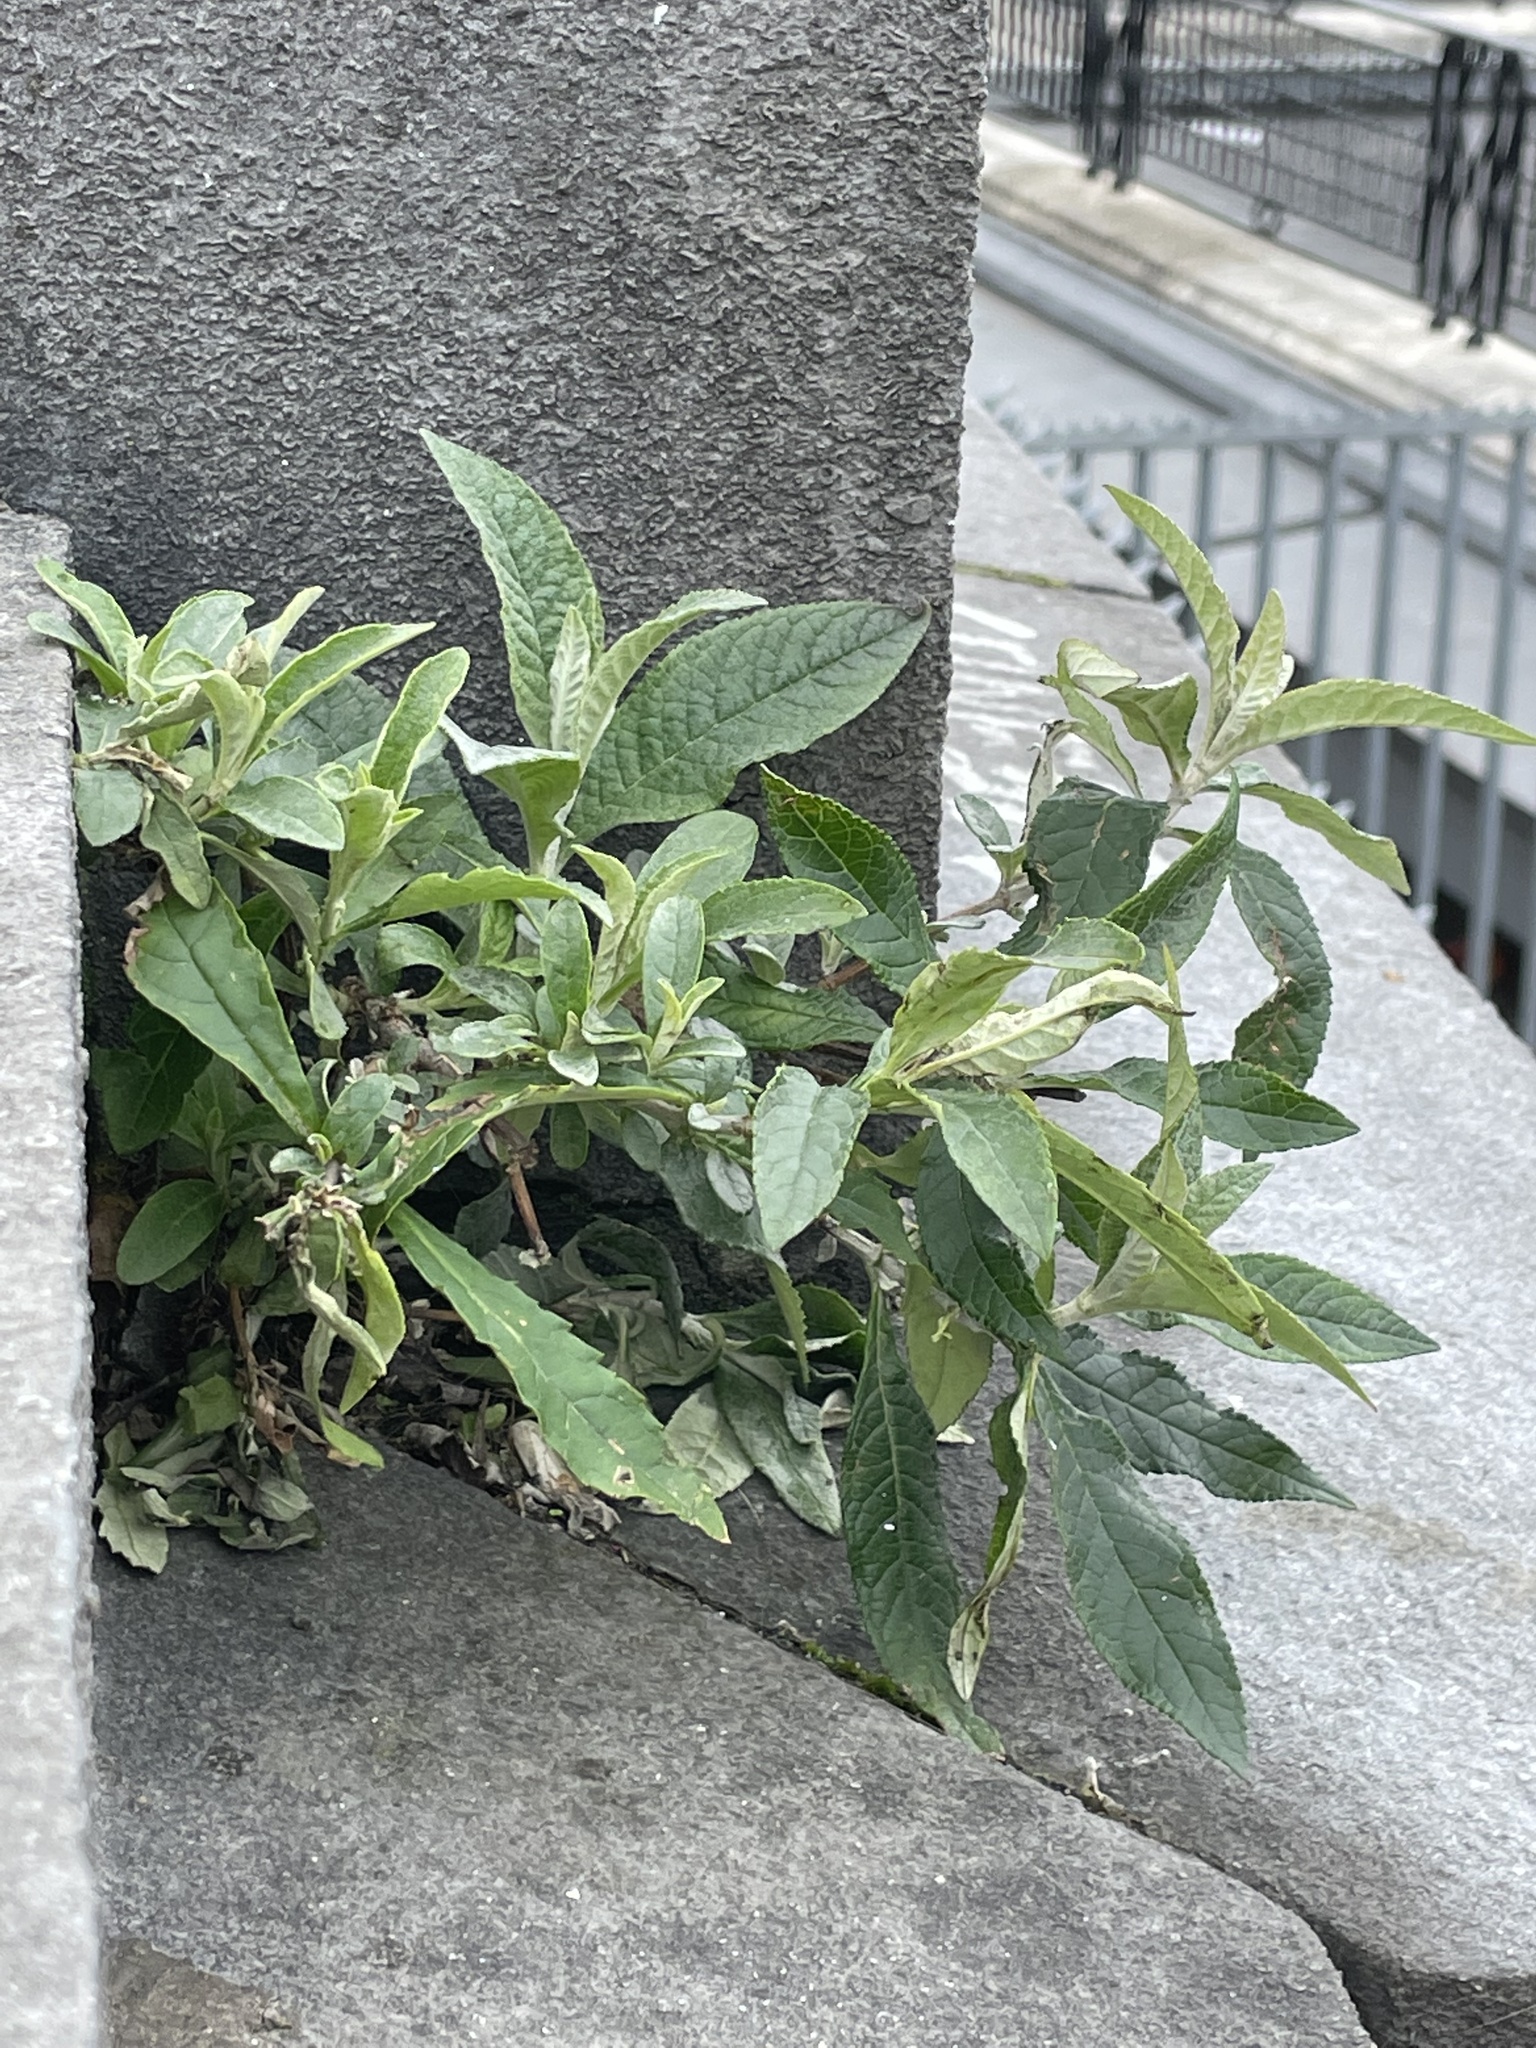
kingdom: Plantae
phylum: Tracheophyta
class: Magnoliopsida
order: Lamiales
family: Scrophulariaceae
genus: Buddleja
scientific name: Buddleja davidii
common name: Butterfly-bush
